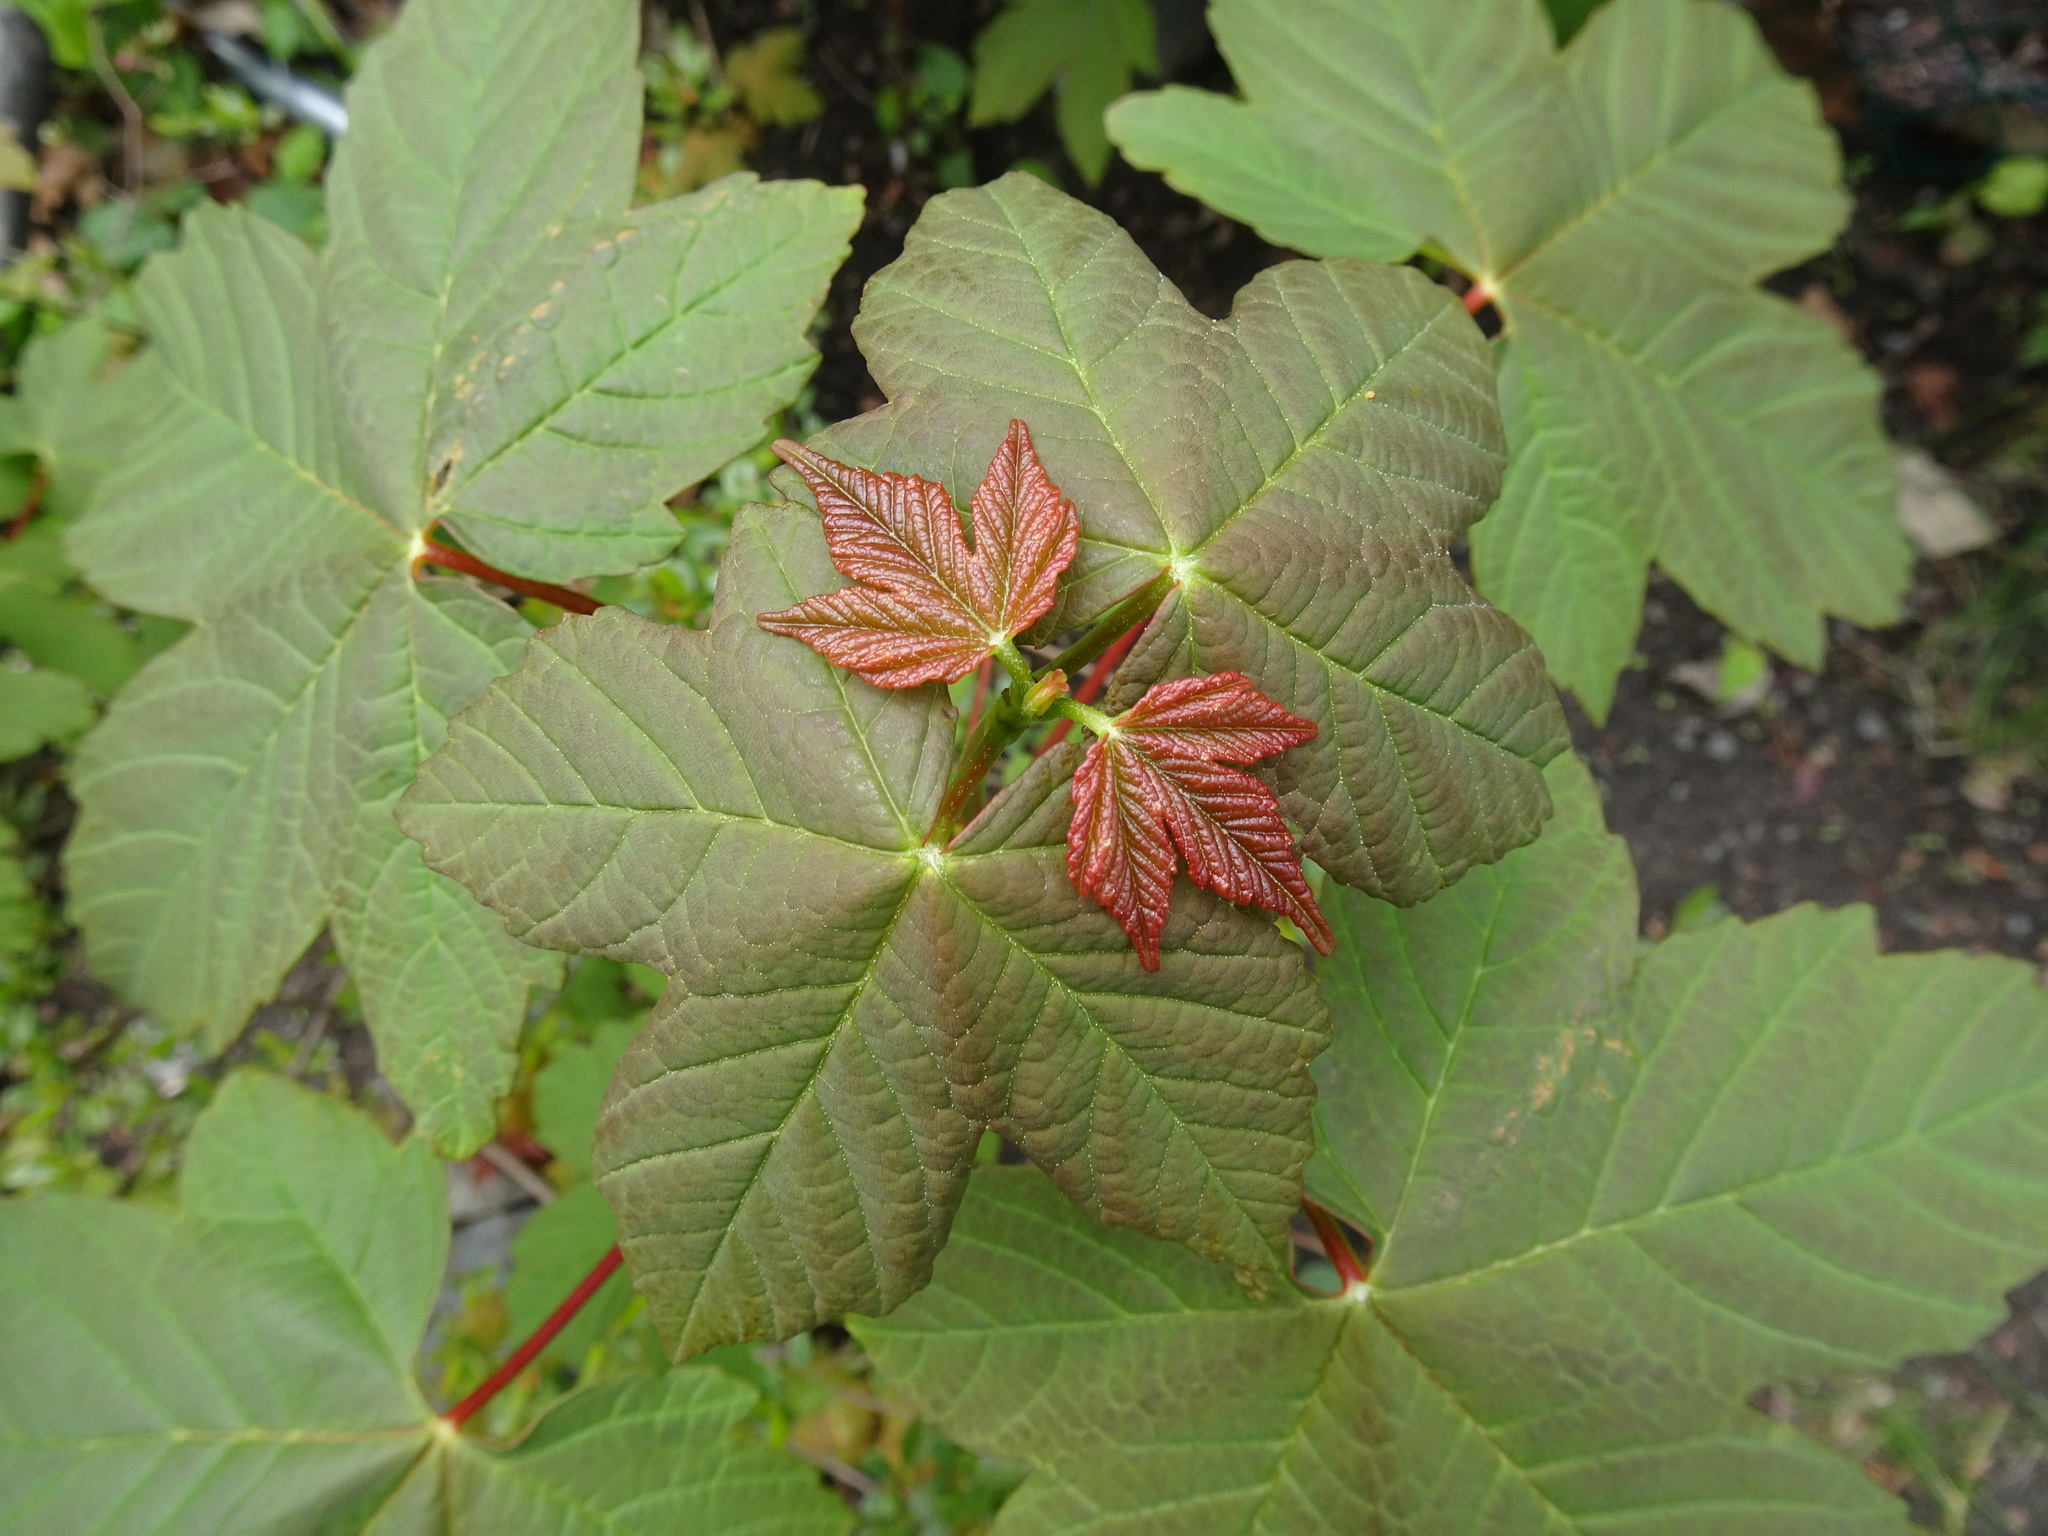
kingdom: Plantae
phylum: Tracheophyta
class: Magnoliopsida
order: Sapindales
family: Sapindaceae
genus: Acer
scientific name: Acer pseudoplatanus
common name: Sycamore
